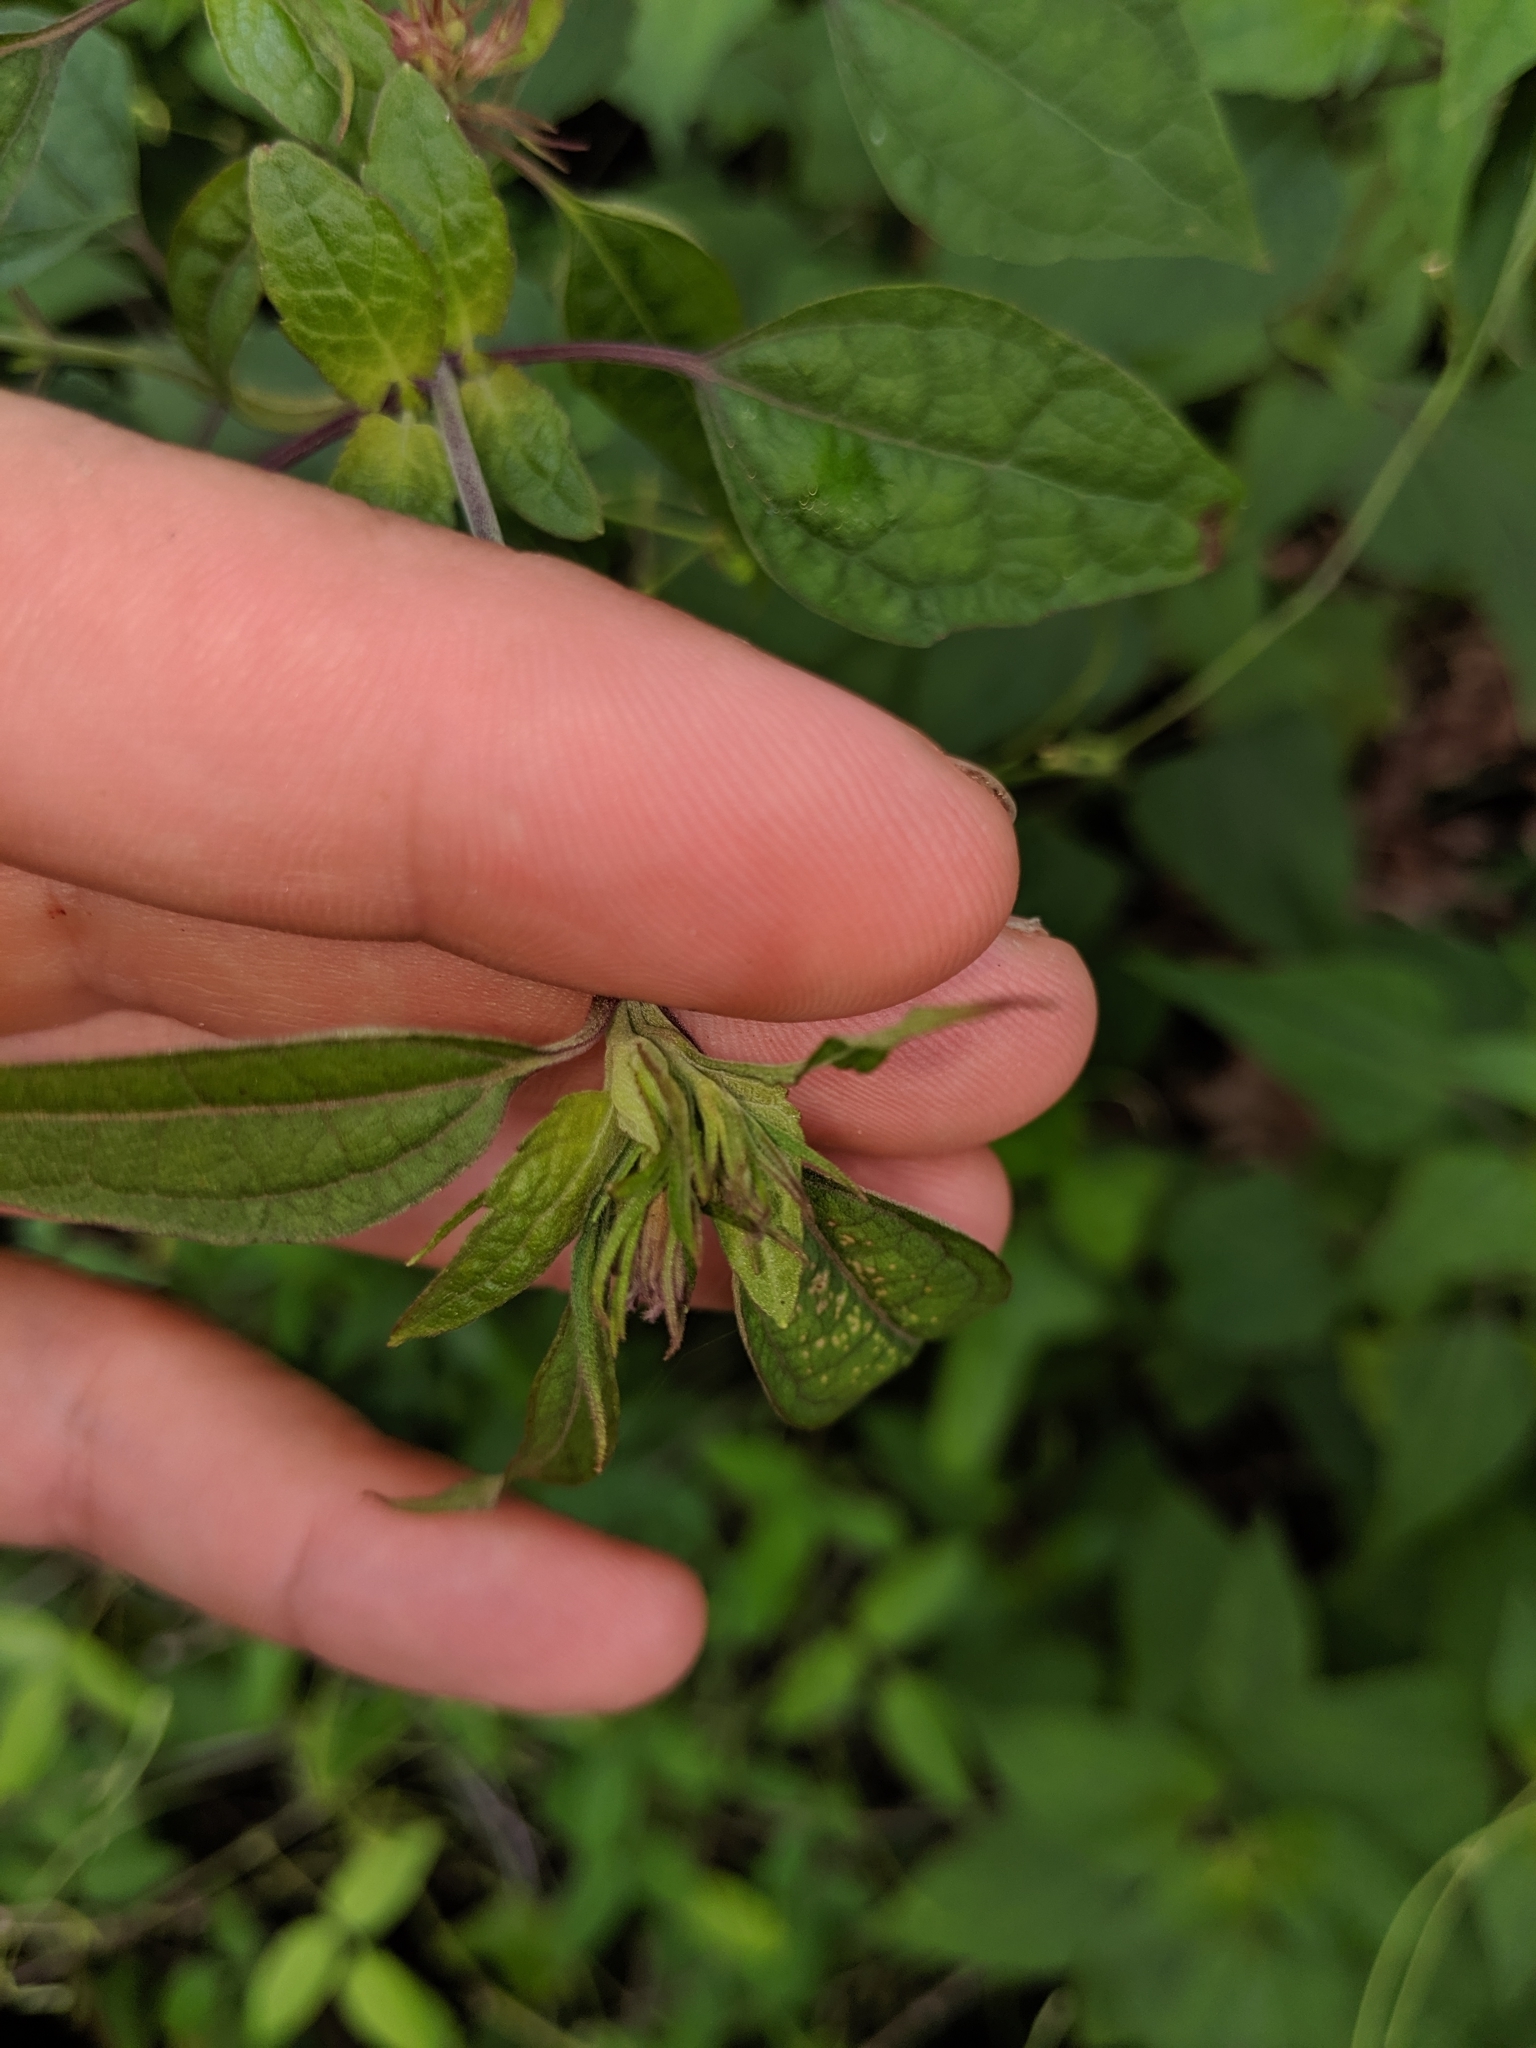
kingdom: Plantae
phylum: Tracheophyta
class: Magnoliopsida
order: Asterales
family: Asteraceae
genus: Brickellia
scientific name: Brickellia cordifolia
